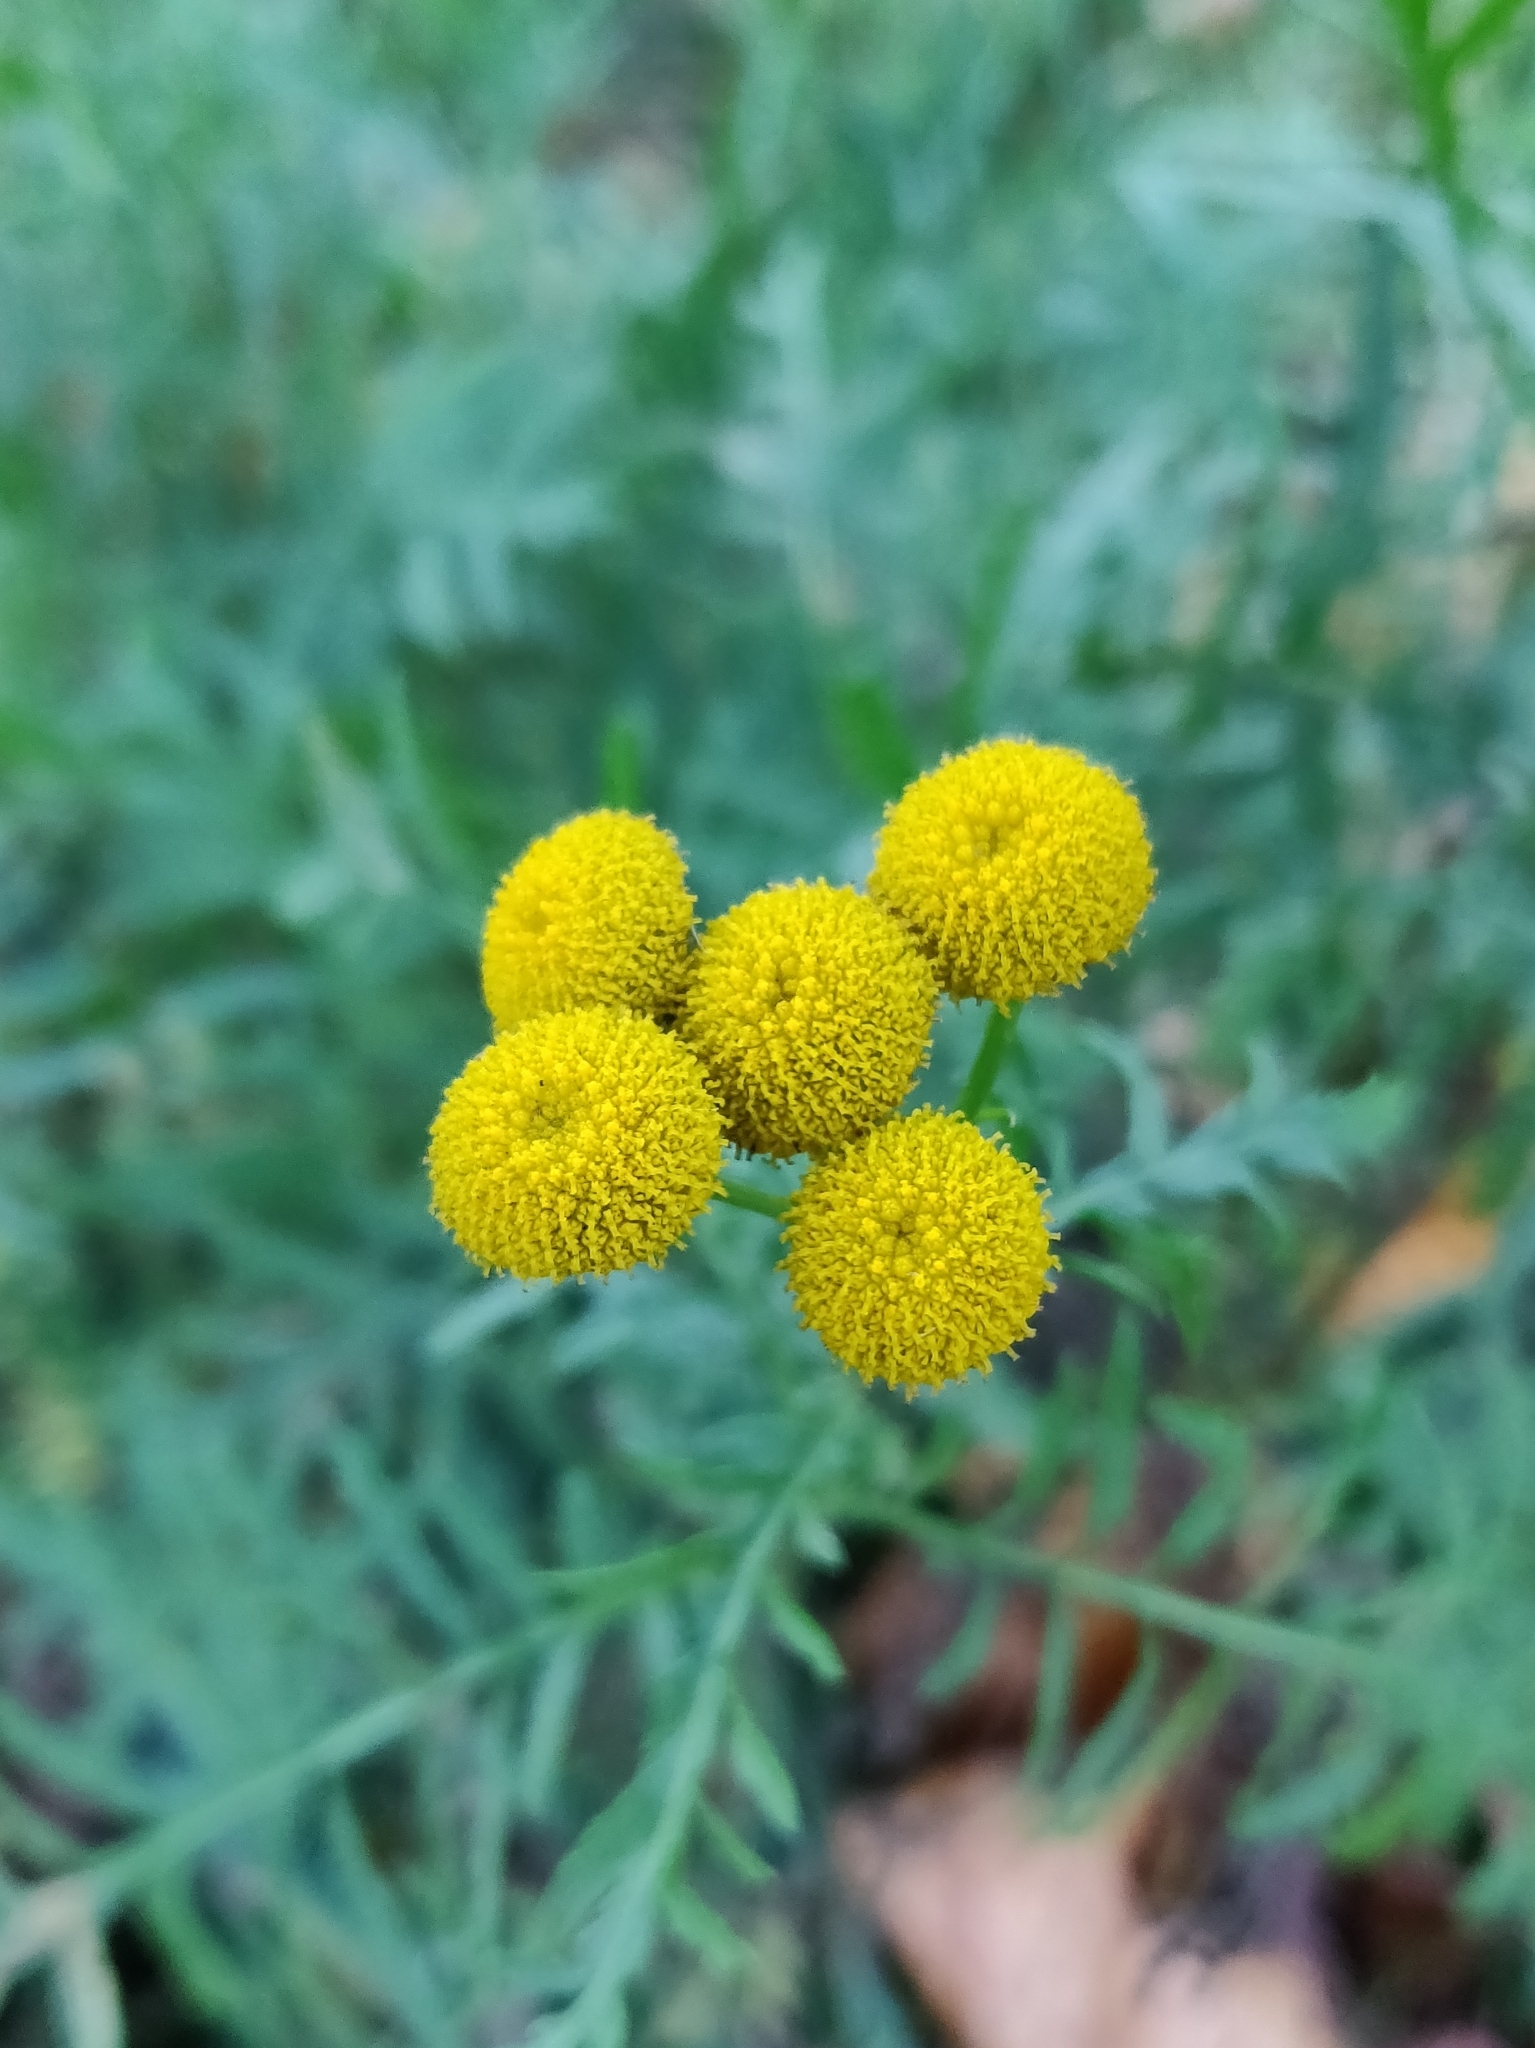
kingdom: Plantae
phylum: Tracheophyta
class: Magnoliopsida
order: Asterales
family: Asteraceae
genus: Tanacetum
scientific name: Tanacetum vulgare
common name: Common tansy
